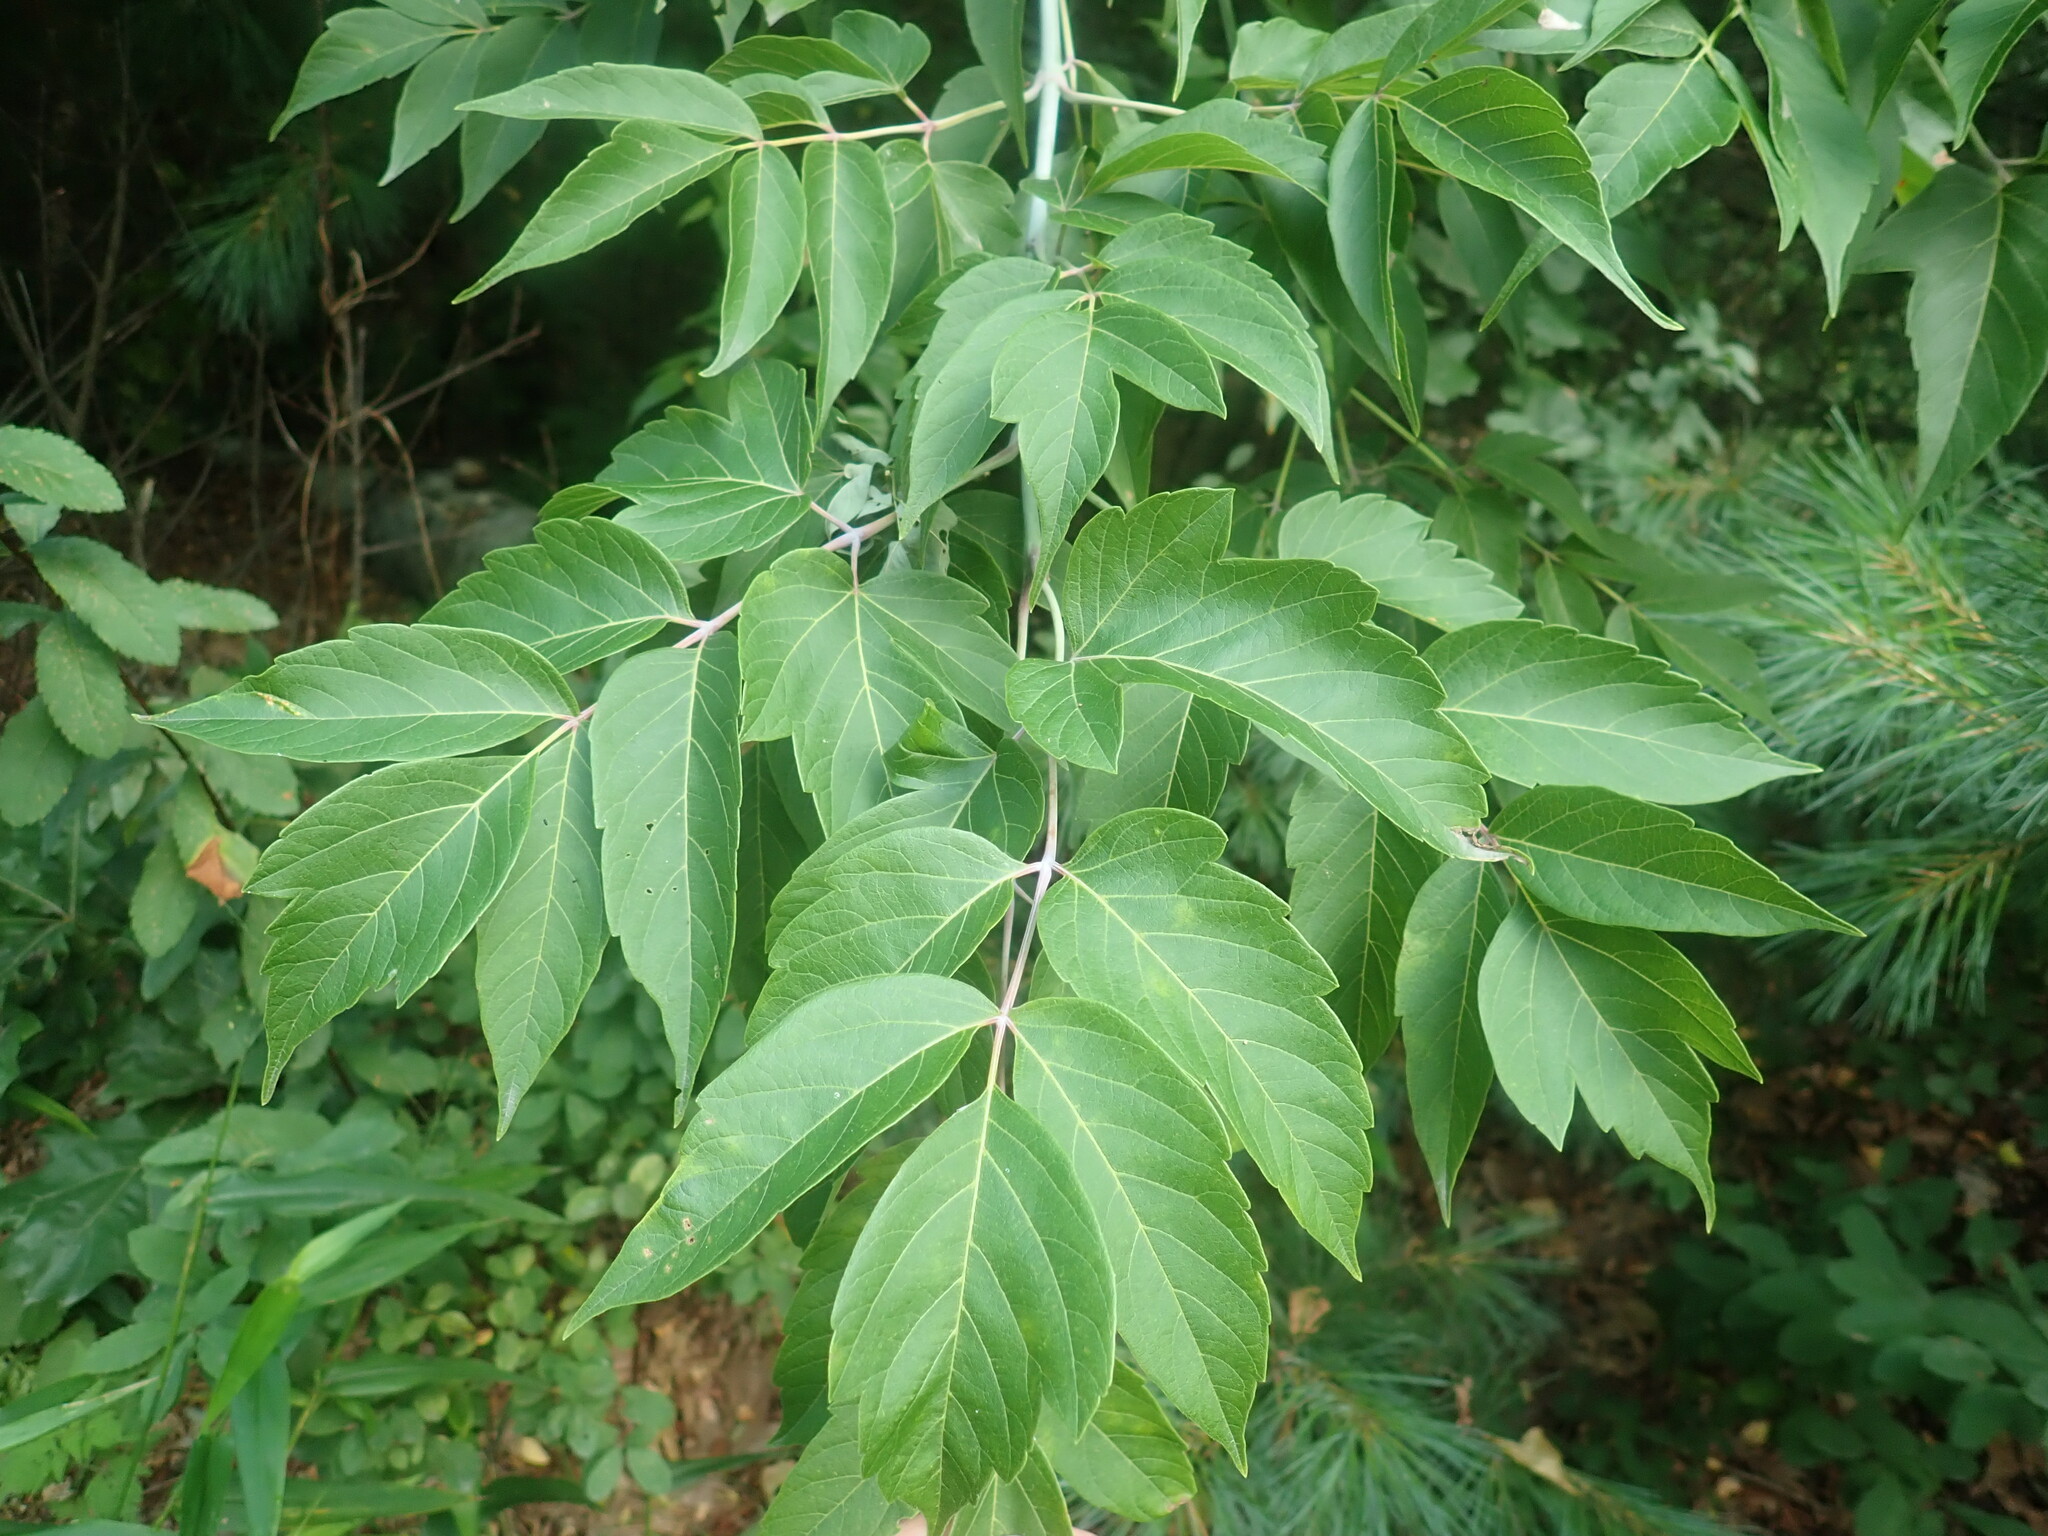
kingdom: Plantae
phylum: Tracheophyta
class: Magnoliopsida
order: Sapindales
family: Sapindaceae
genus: Acer
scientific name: Acer negundo
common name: Ashleaf maple
